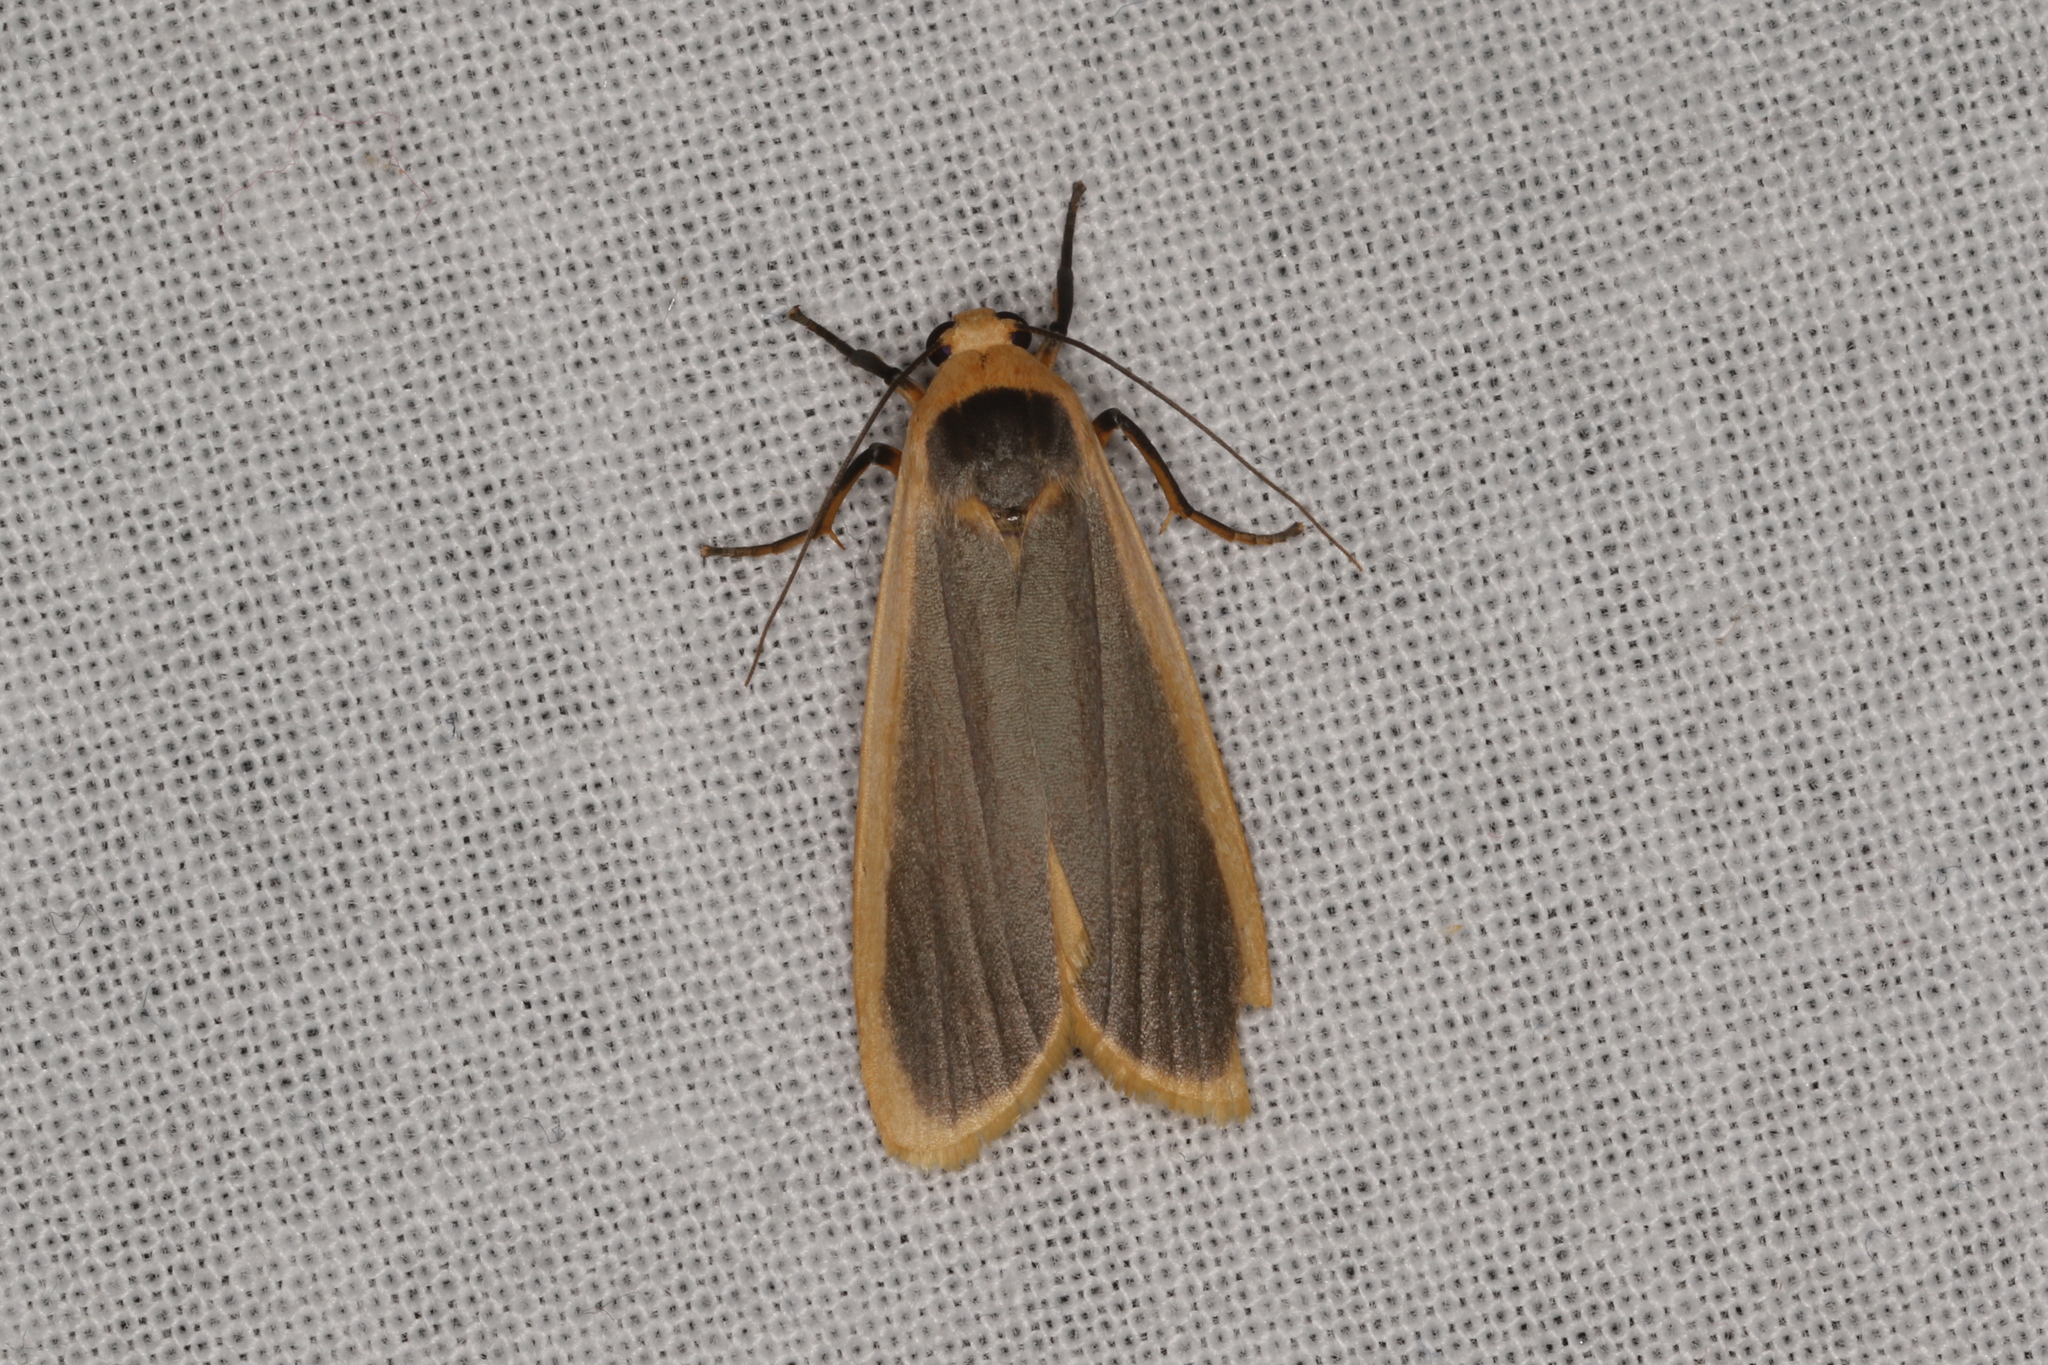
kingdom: Animalia
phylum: Arthropoda
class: Insecta
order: Lepidoptera
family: Erebidae
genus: Brunia
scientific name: Brunia dorsalis
